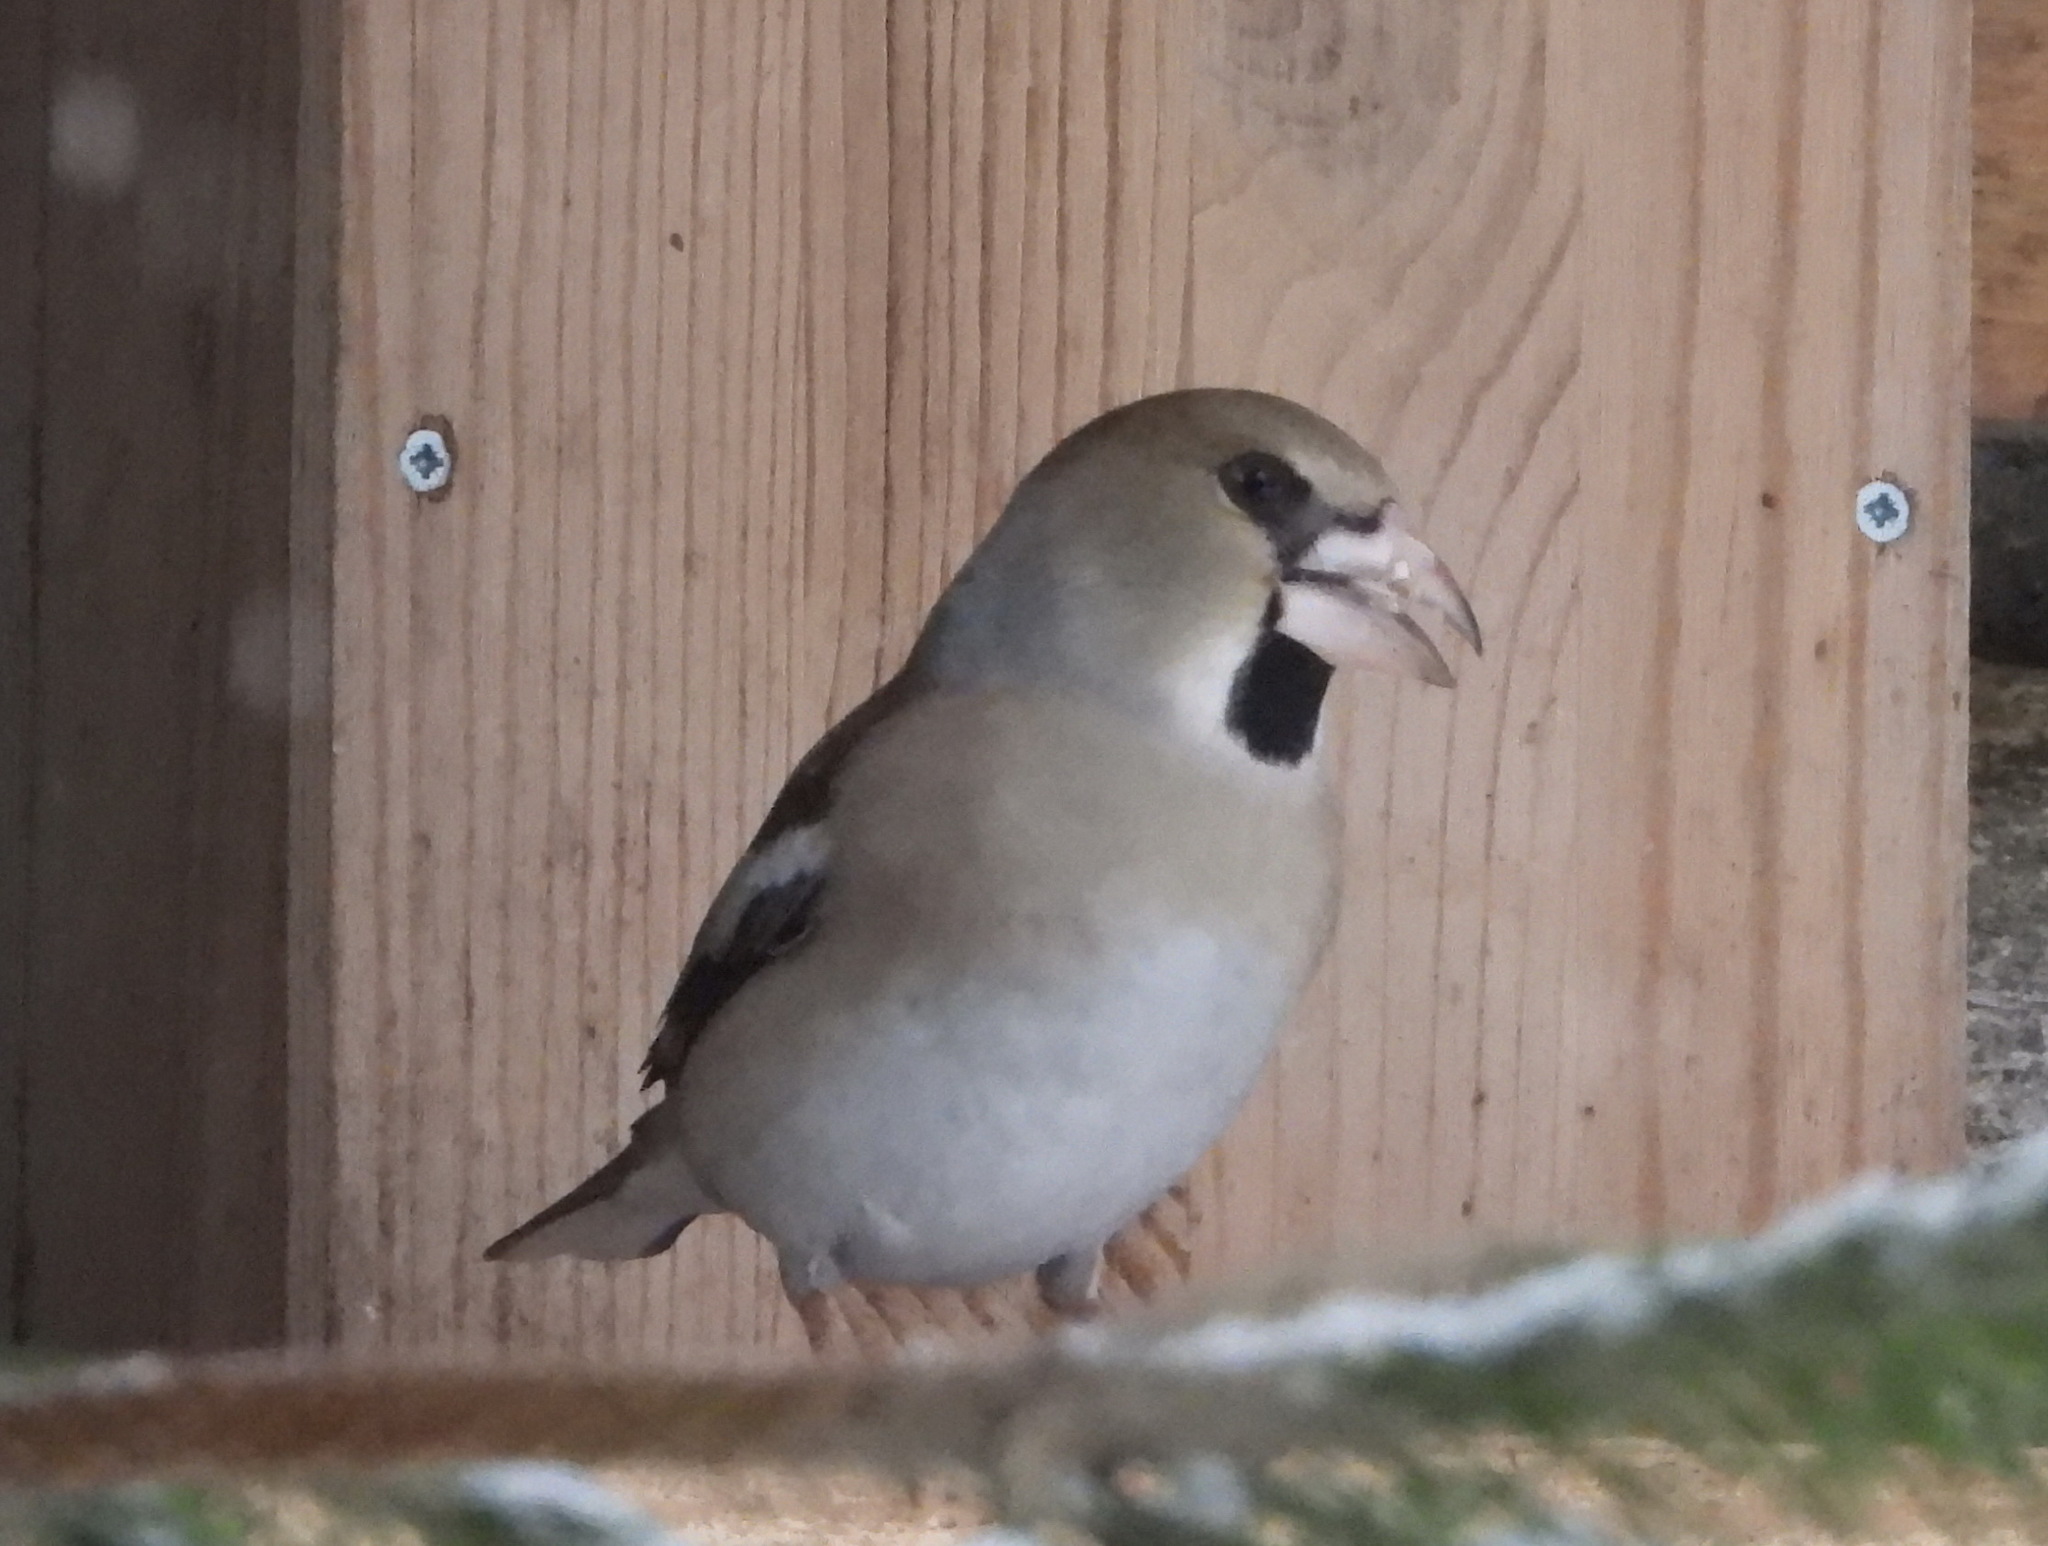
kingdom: Animalia
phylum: Chordata
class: Aves
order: Passeriformes
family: Fringillidae
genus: Coccothraustes
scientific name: Coccothraustes coccothraustes
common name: Hawfinch
